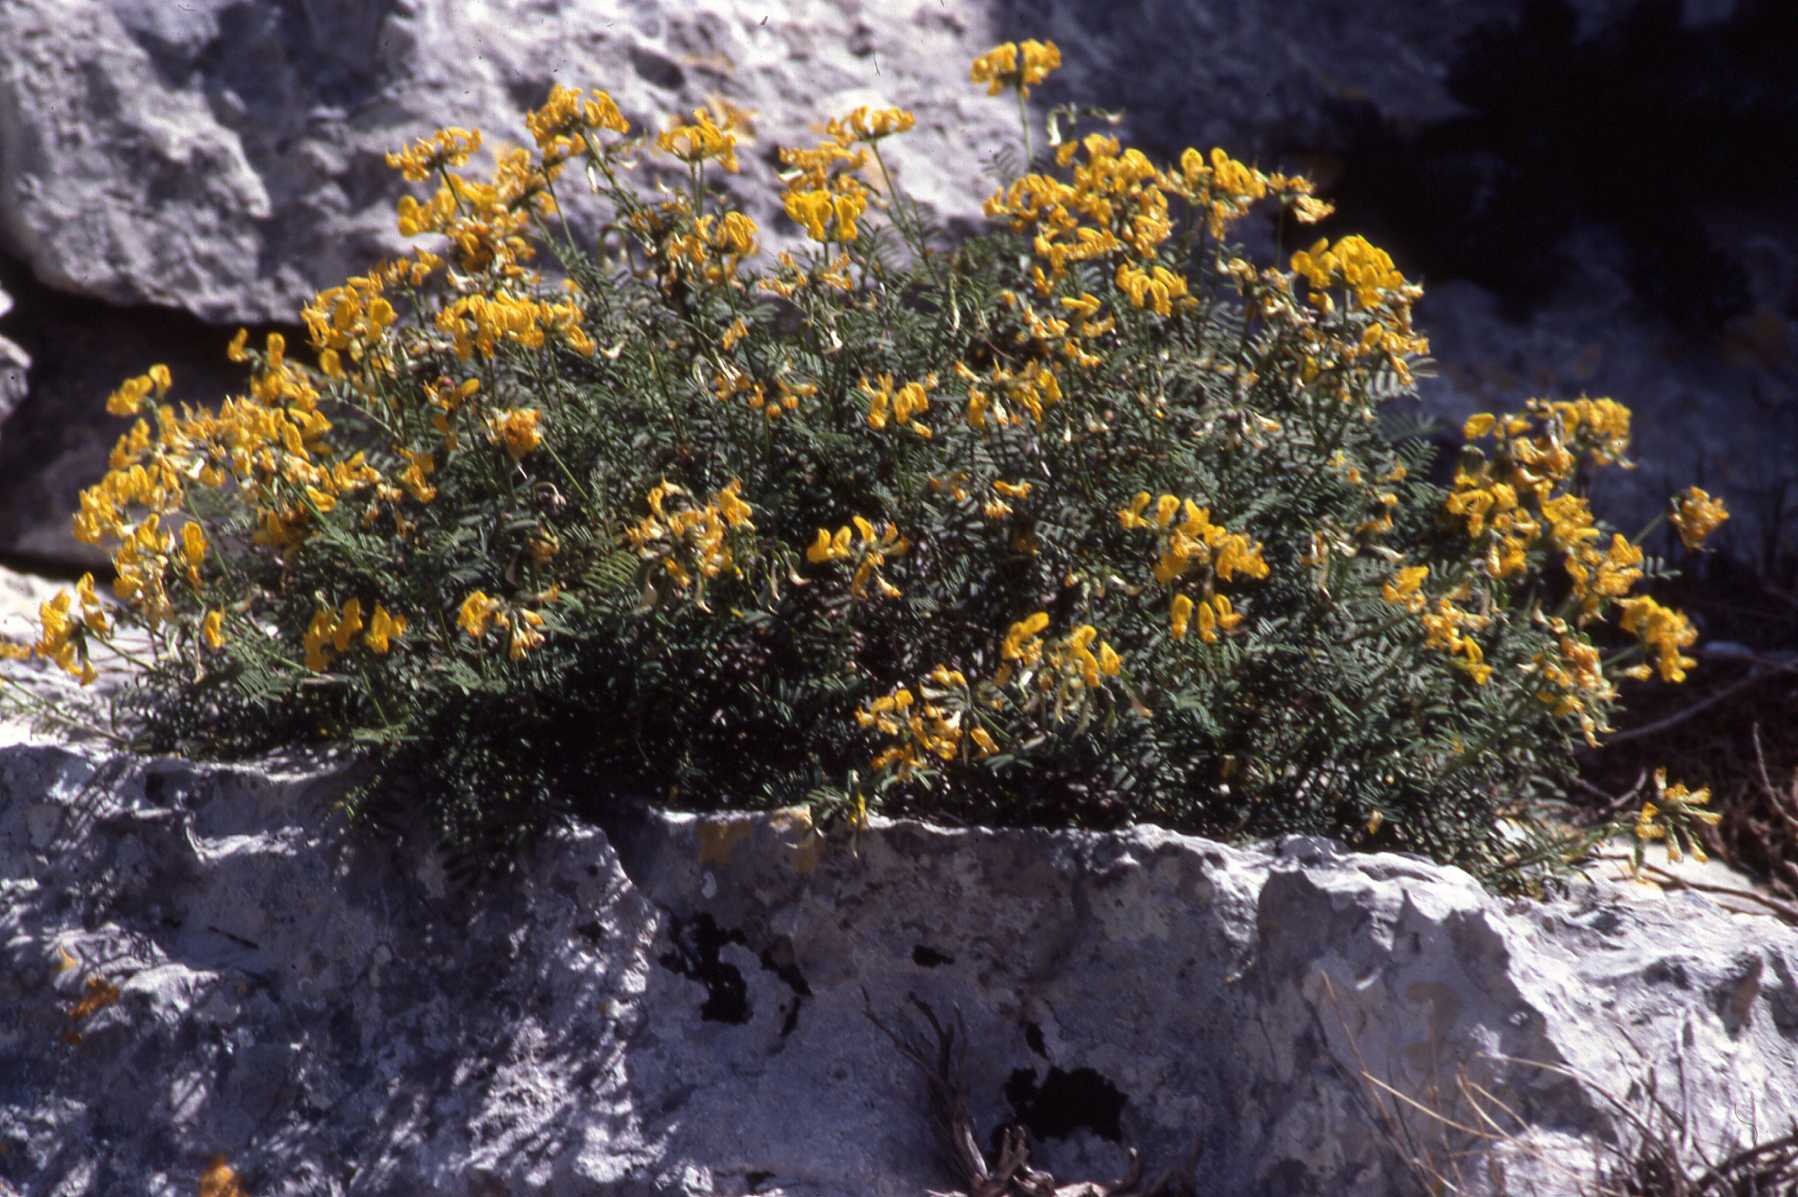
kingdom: Plantae
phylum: Tracheophyta
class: Magnoliopsida
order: Fabales
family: Fabaceae
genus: Hippocrepis
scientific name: Hippocrepis balearica
